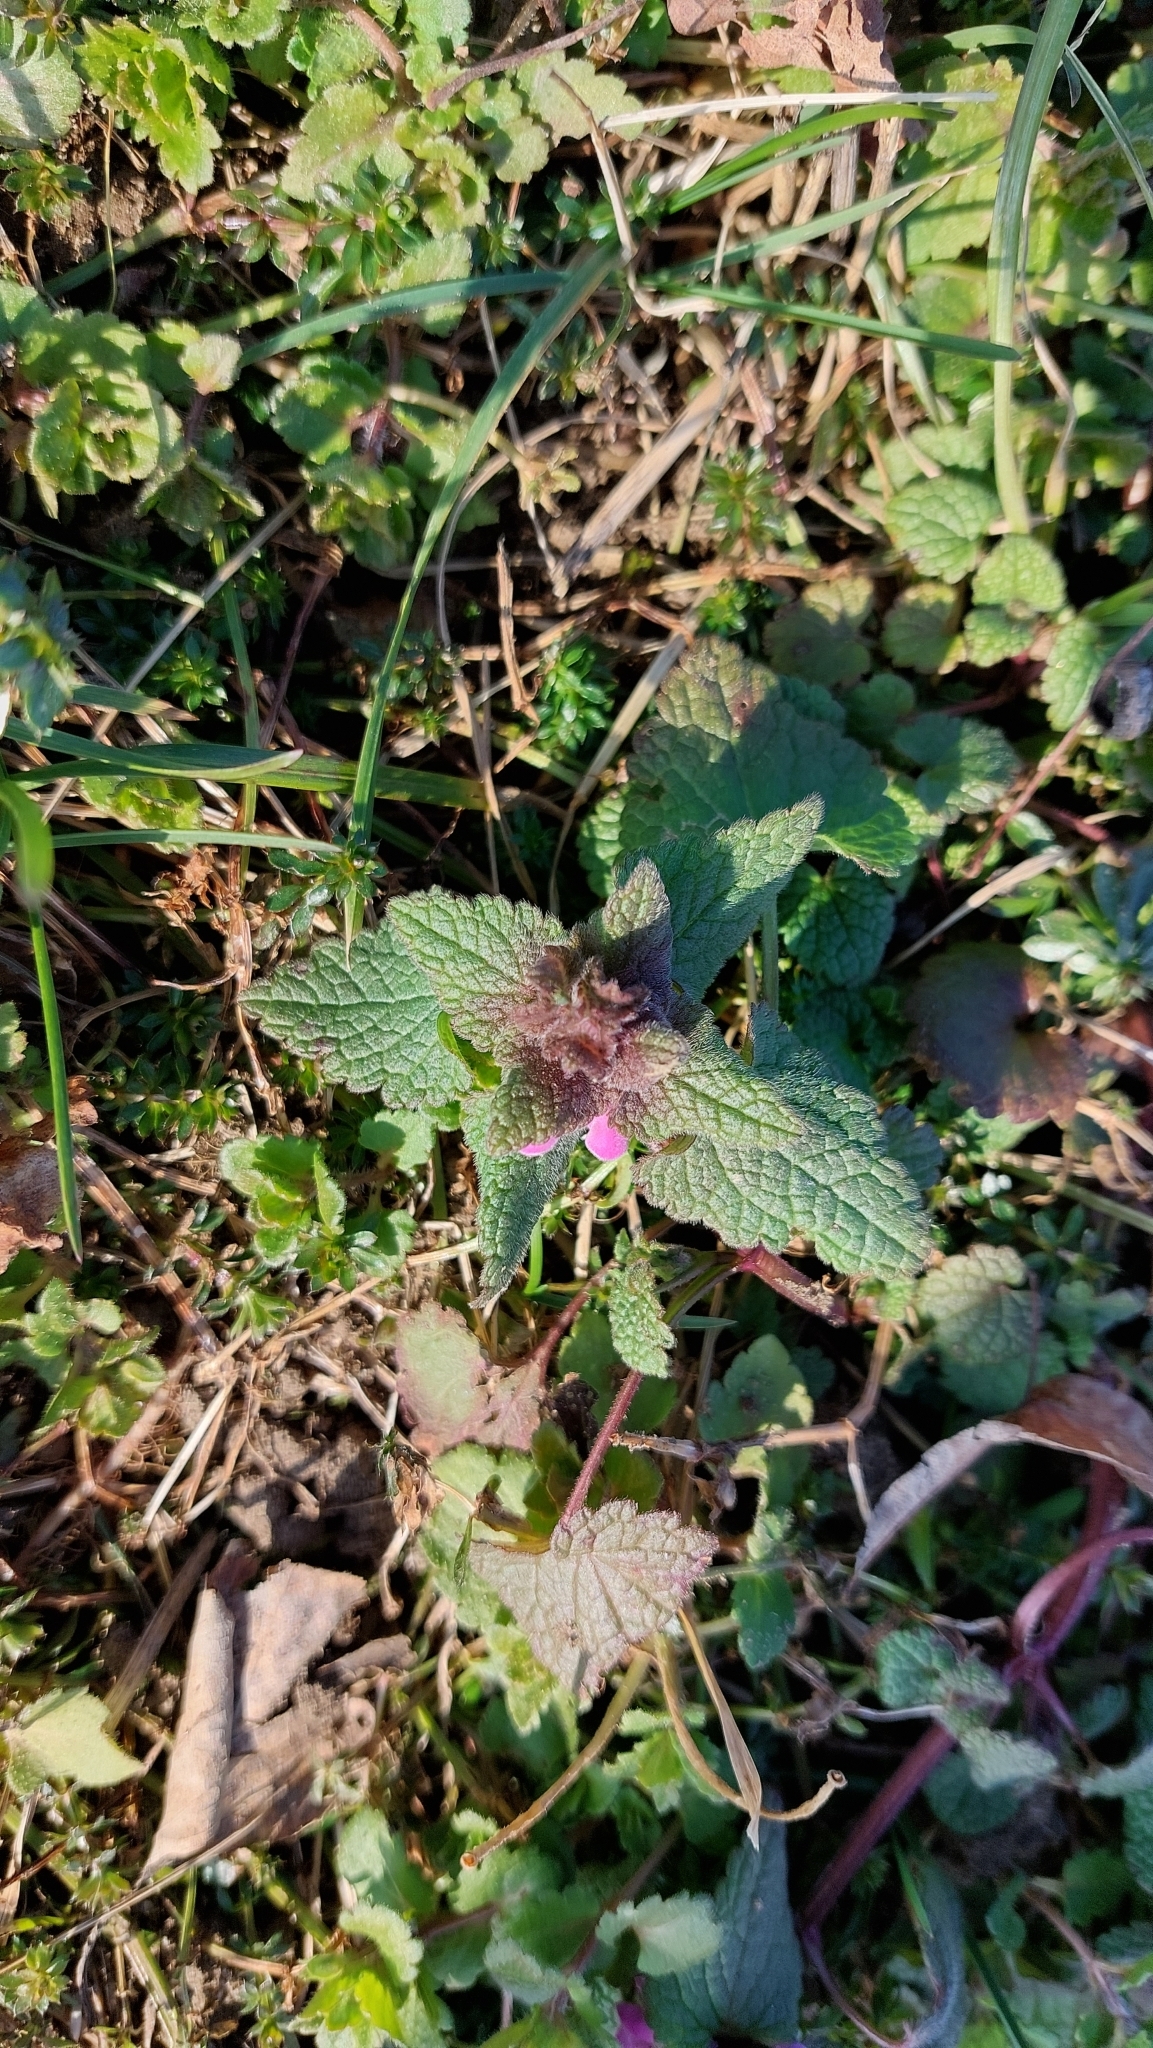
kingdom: Plantae
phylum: Tracheophyta
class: Magnoliopsida
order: Lamiales
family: Lamiaceae
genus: Lamium
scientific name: Lamium purpureum
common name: Red dead-nettle
